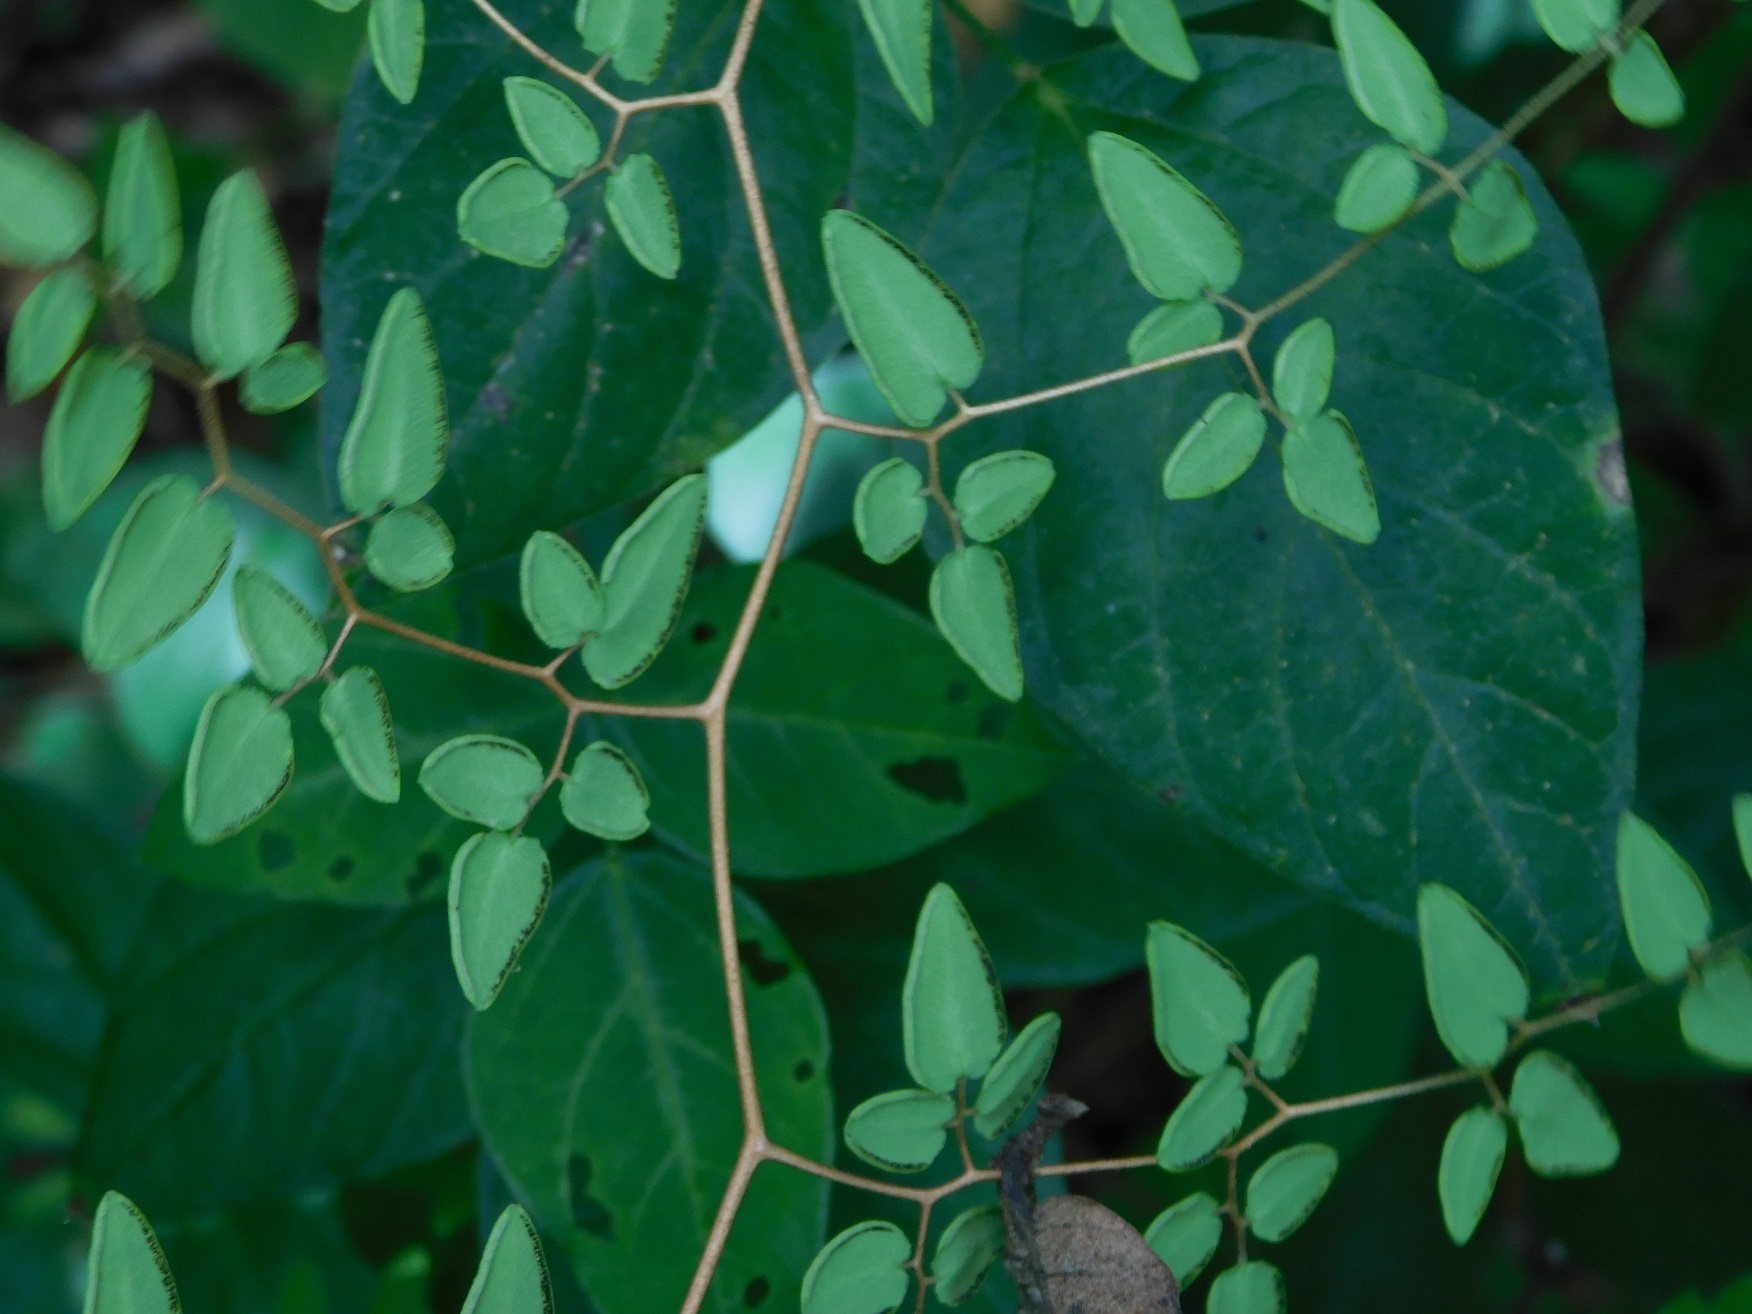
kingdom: Plantae
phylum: Tracheophyta
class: Polypodiopsida
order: Polypodiales
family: Pteridaceae
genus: Pellaea
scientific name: Pellaea ovata
